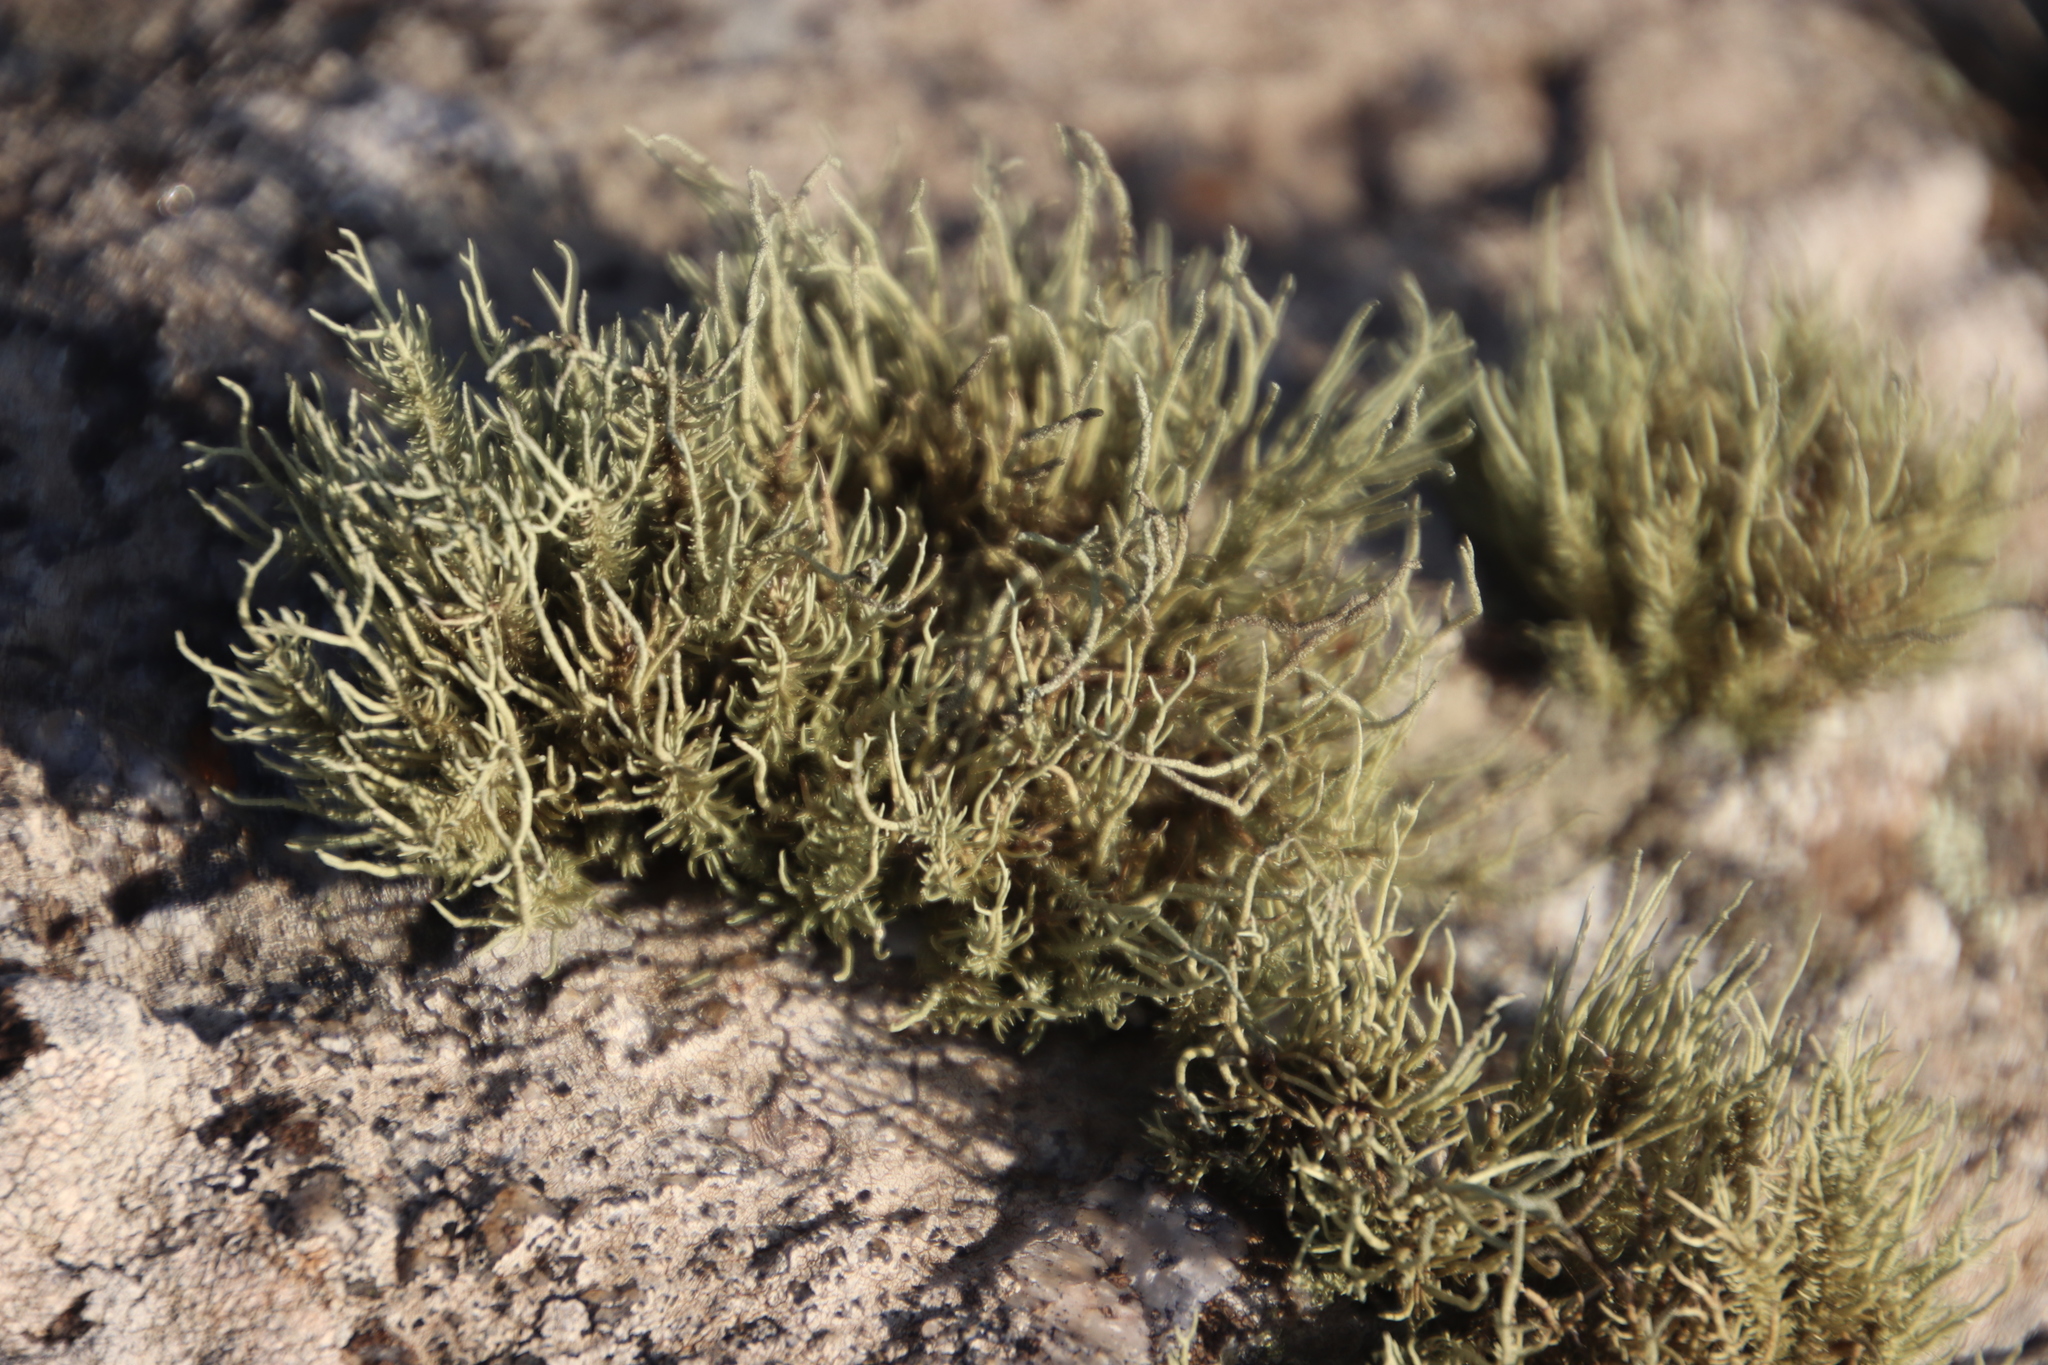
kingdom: Fungi
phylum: Ascomycota
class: Lecanoromycetes
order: Lecanorales
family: Parmeliaceae
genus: Usnea
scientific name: Usnea pulvinata
